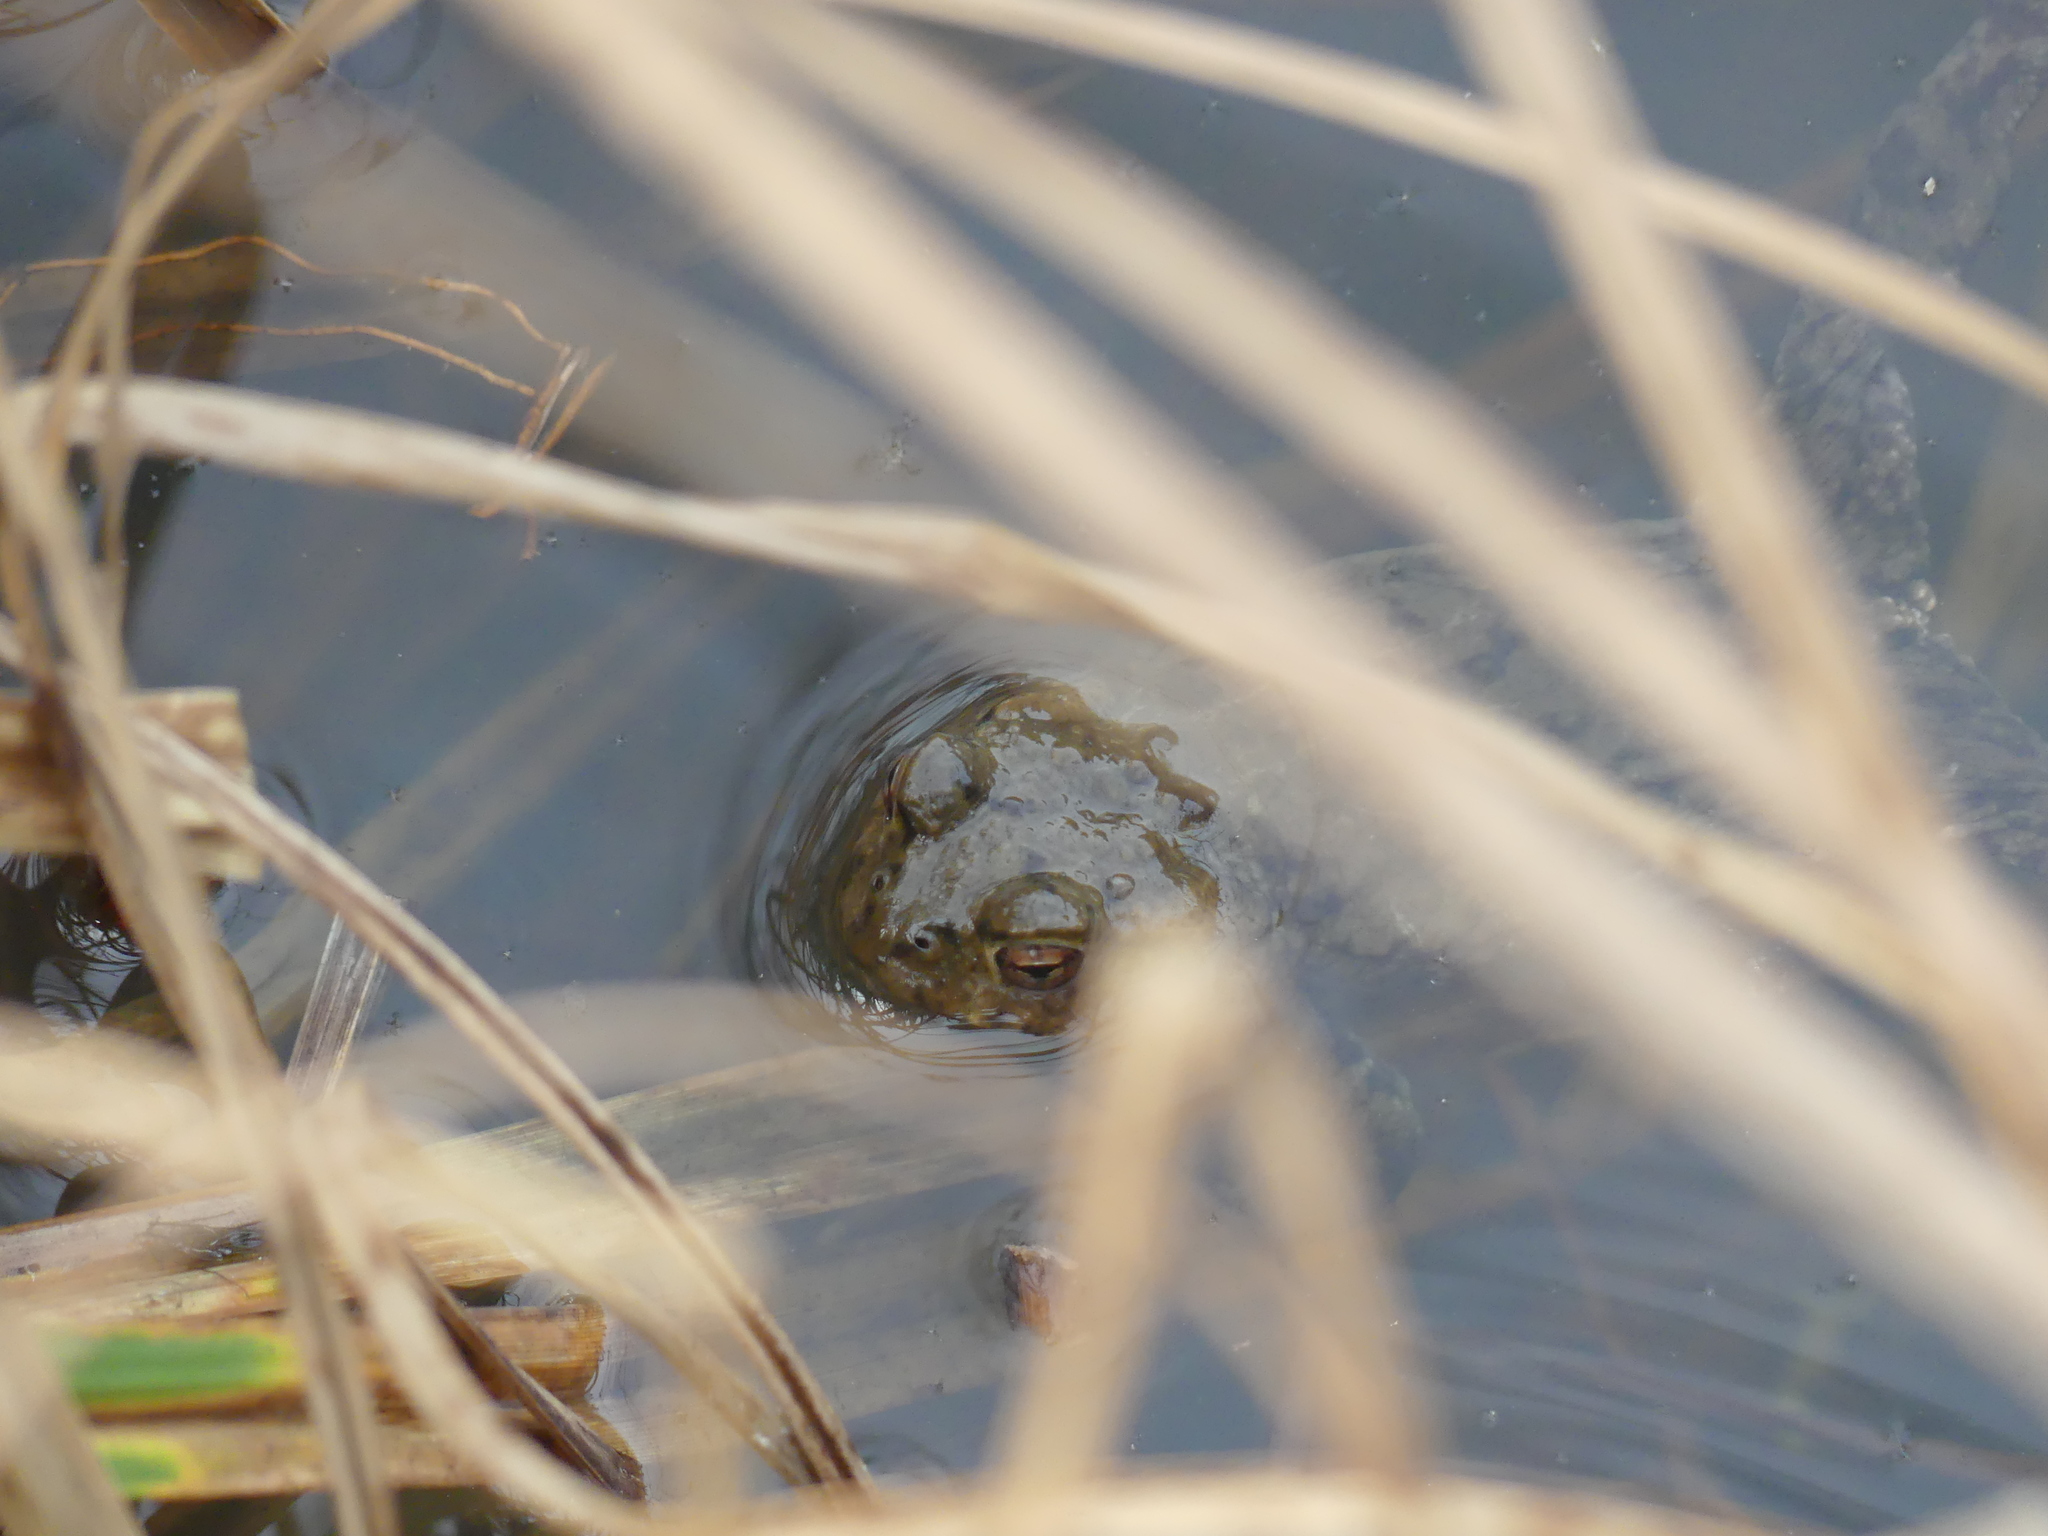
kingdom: Animalia
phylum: Chordata
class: Amphibia
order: Anura
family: Bufonidae
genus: Bufo
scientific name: Bufo bufo
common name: Common toad
